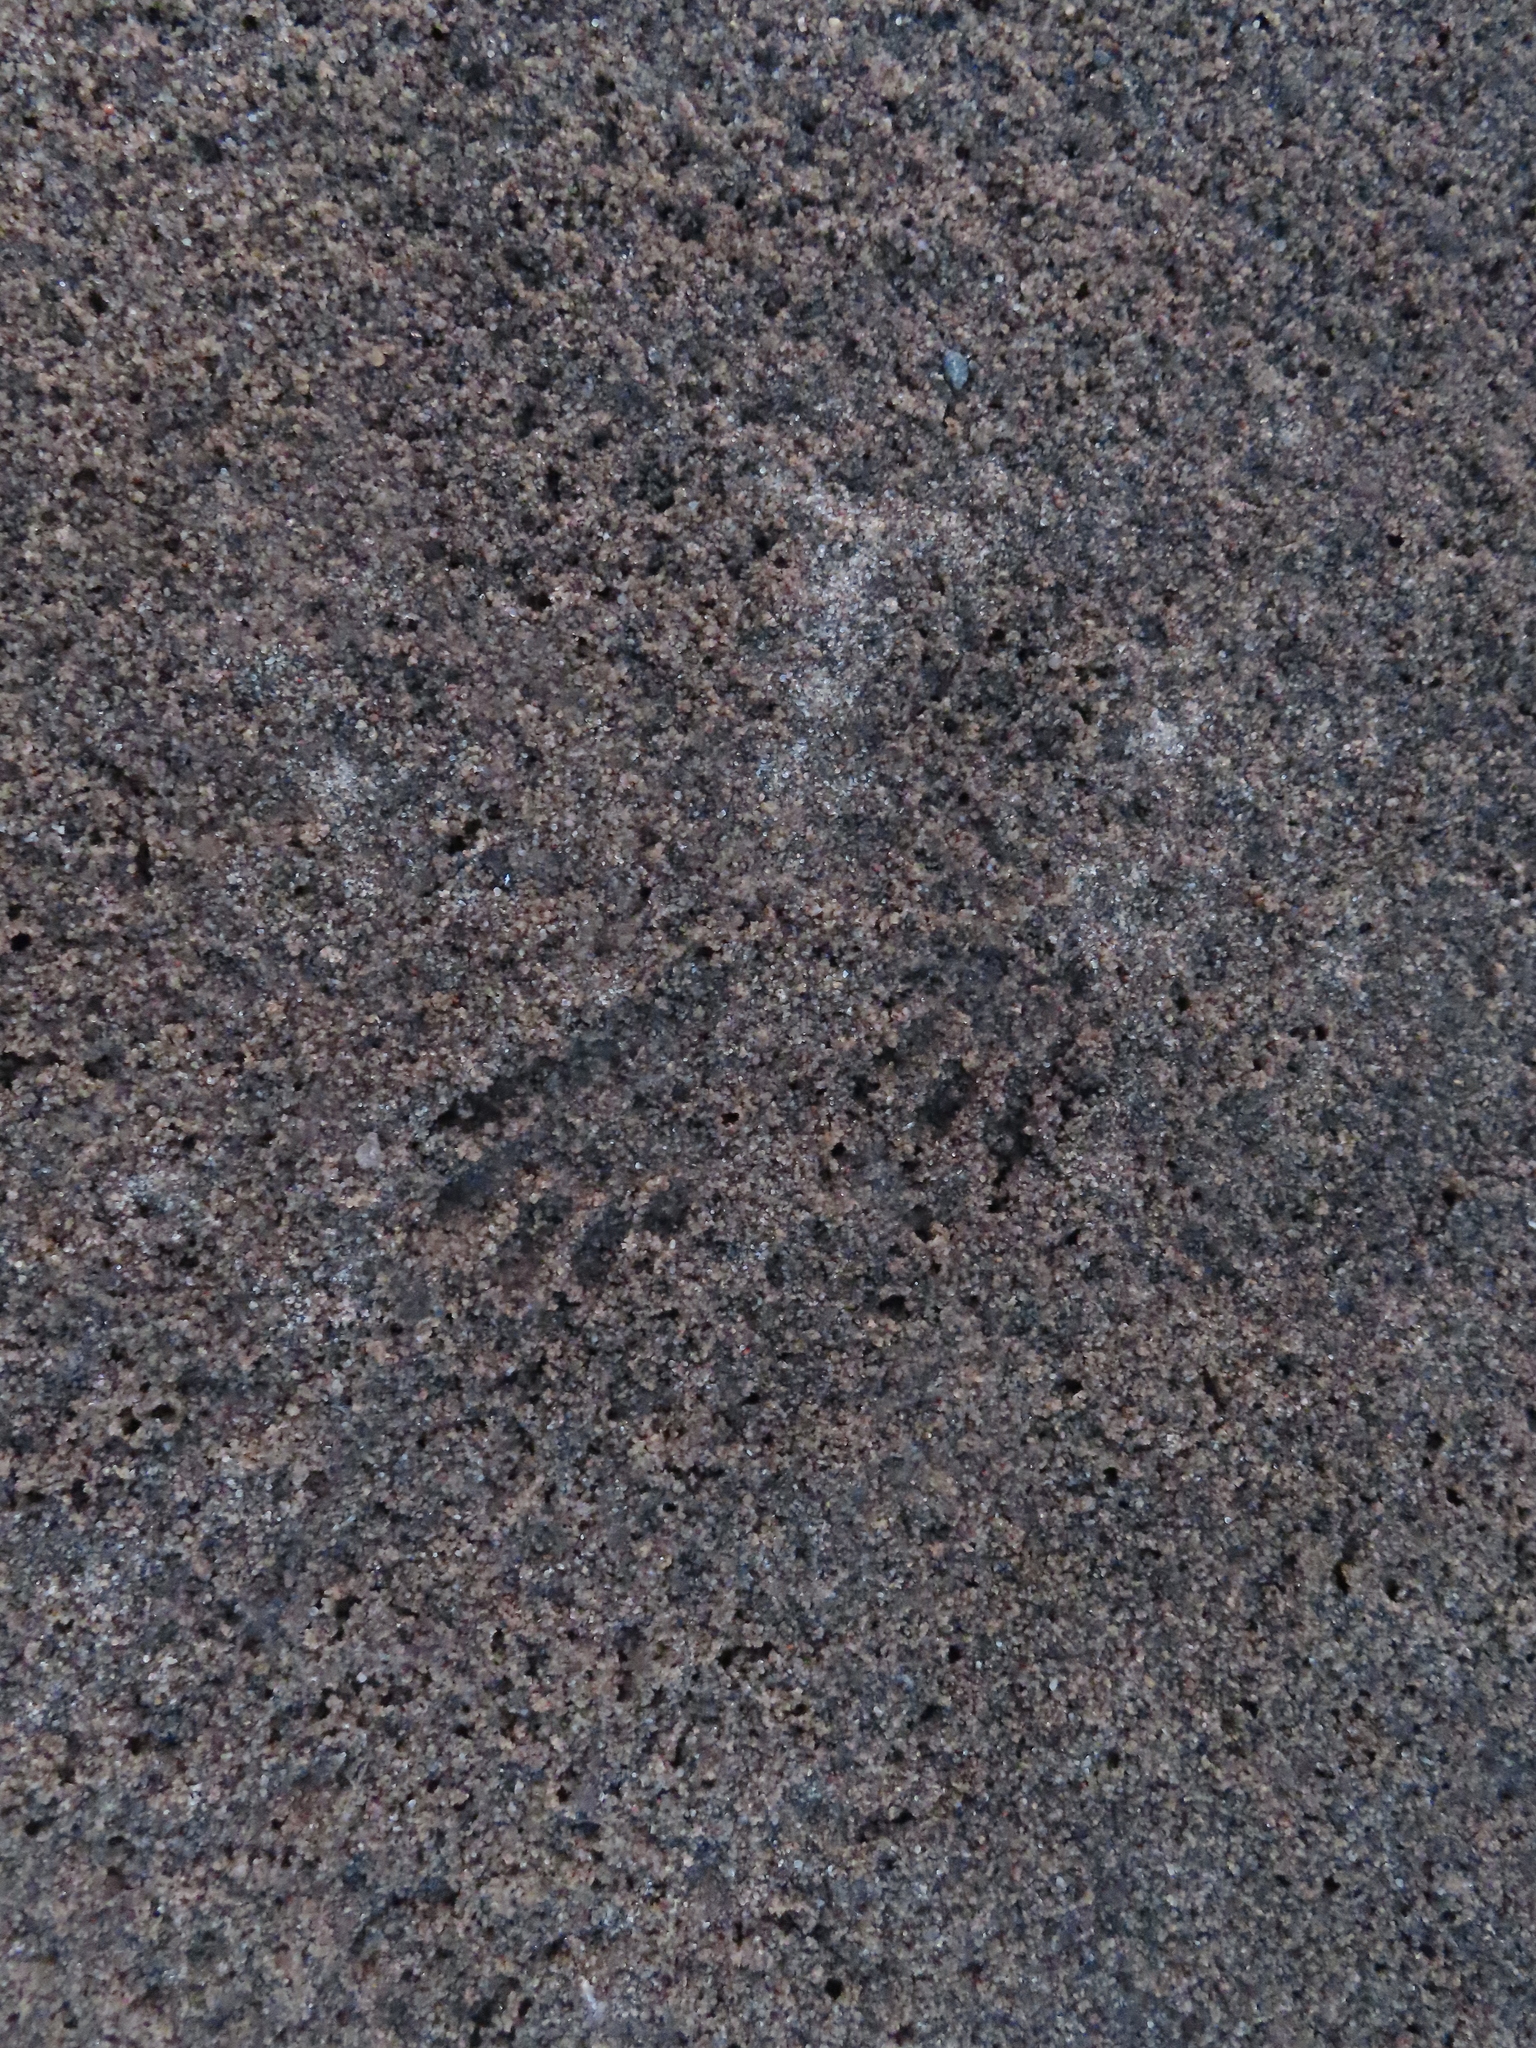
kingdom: Animalia
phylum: Chordata
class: Mammalia
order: Carnivora
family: Procyonidae
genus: Procyon
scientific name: Procyon lotor
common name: Raccoon
